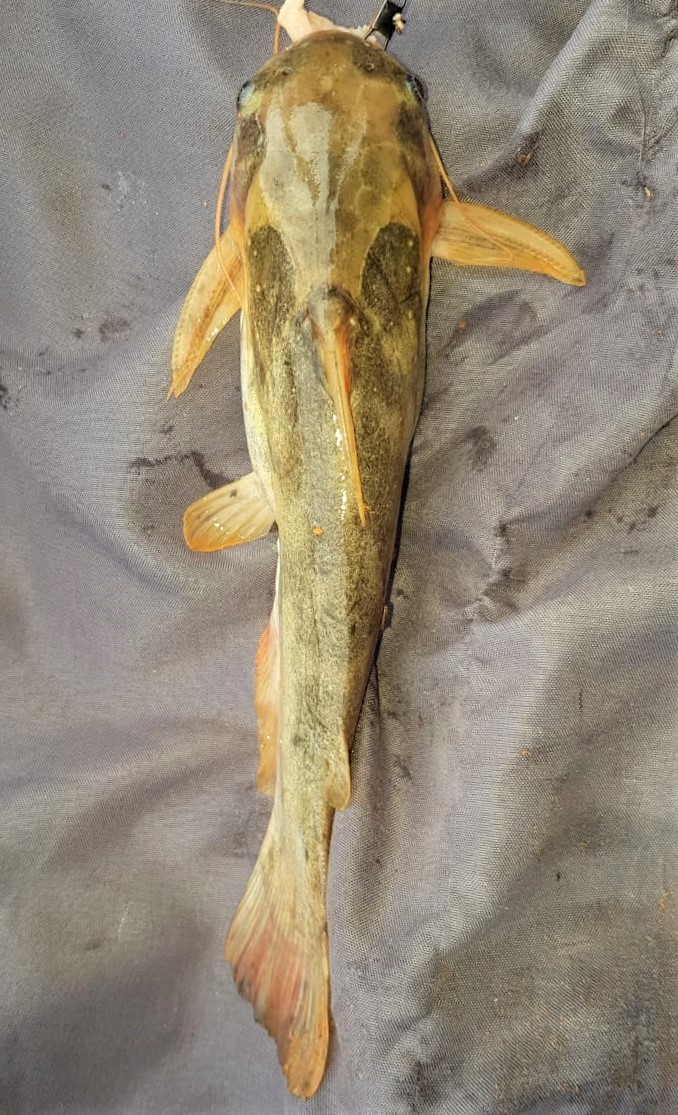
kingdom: Animalia
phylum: Chordata
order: Siluriformes
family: Auchenipteridae
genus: Trachelyopterus
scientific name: Trachelyopterus galeatus
